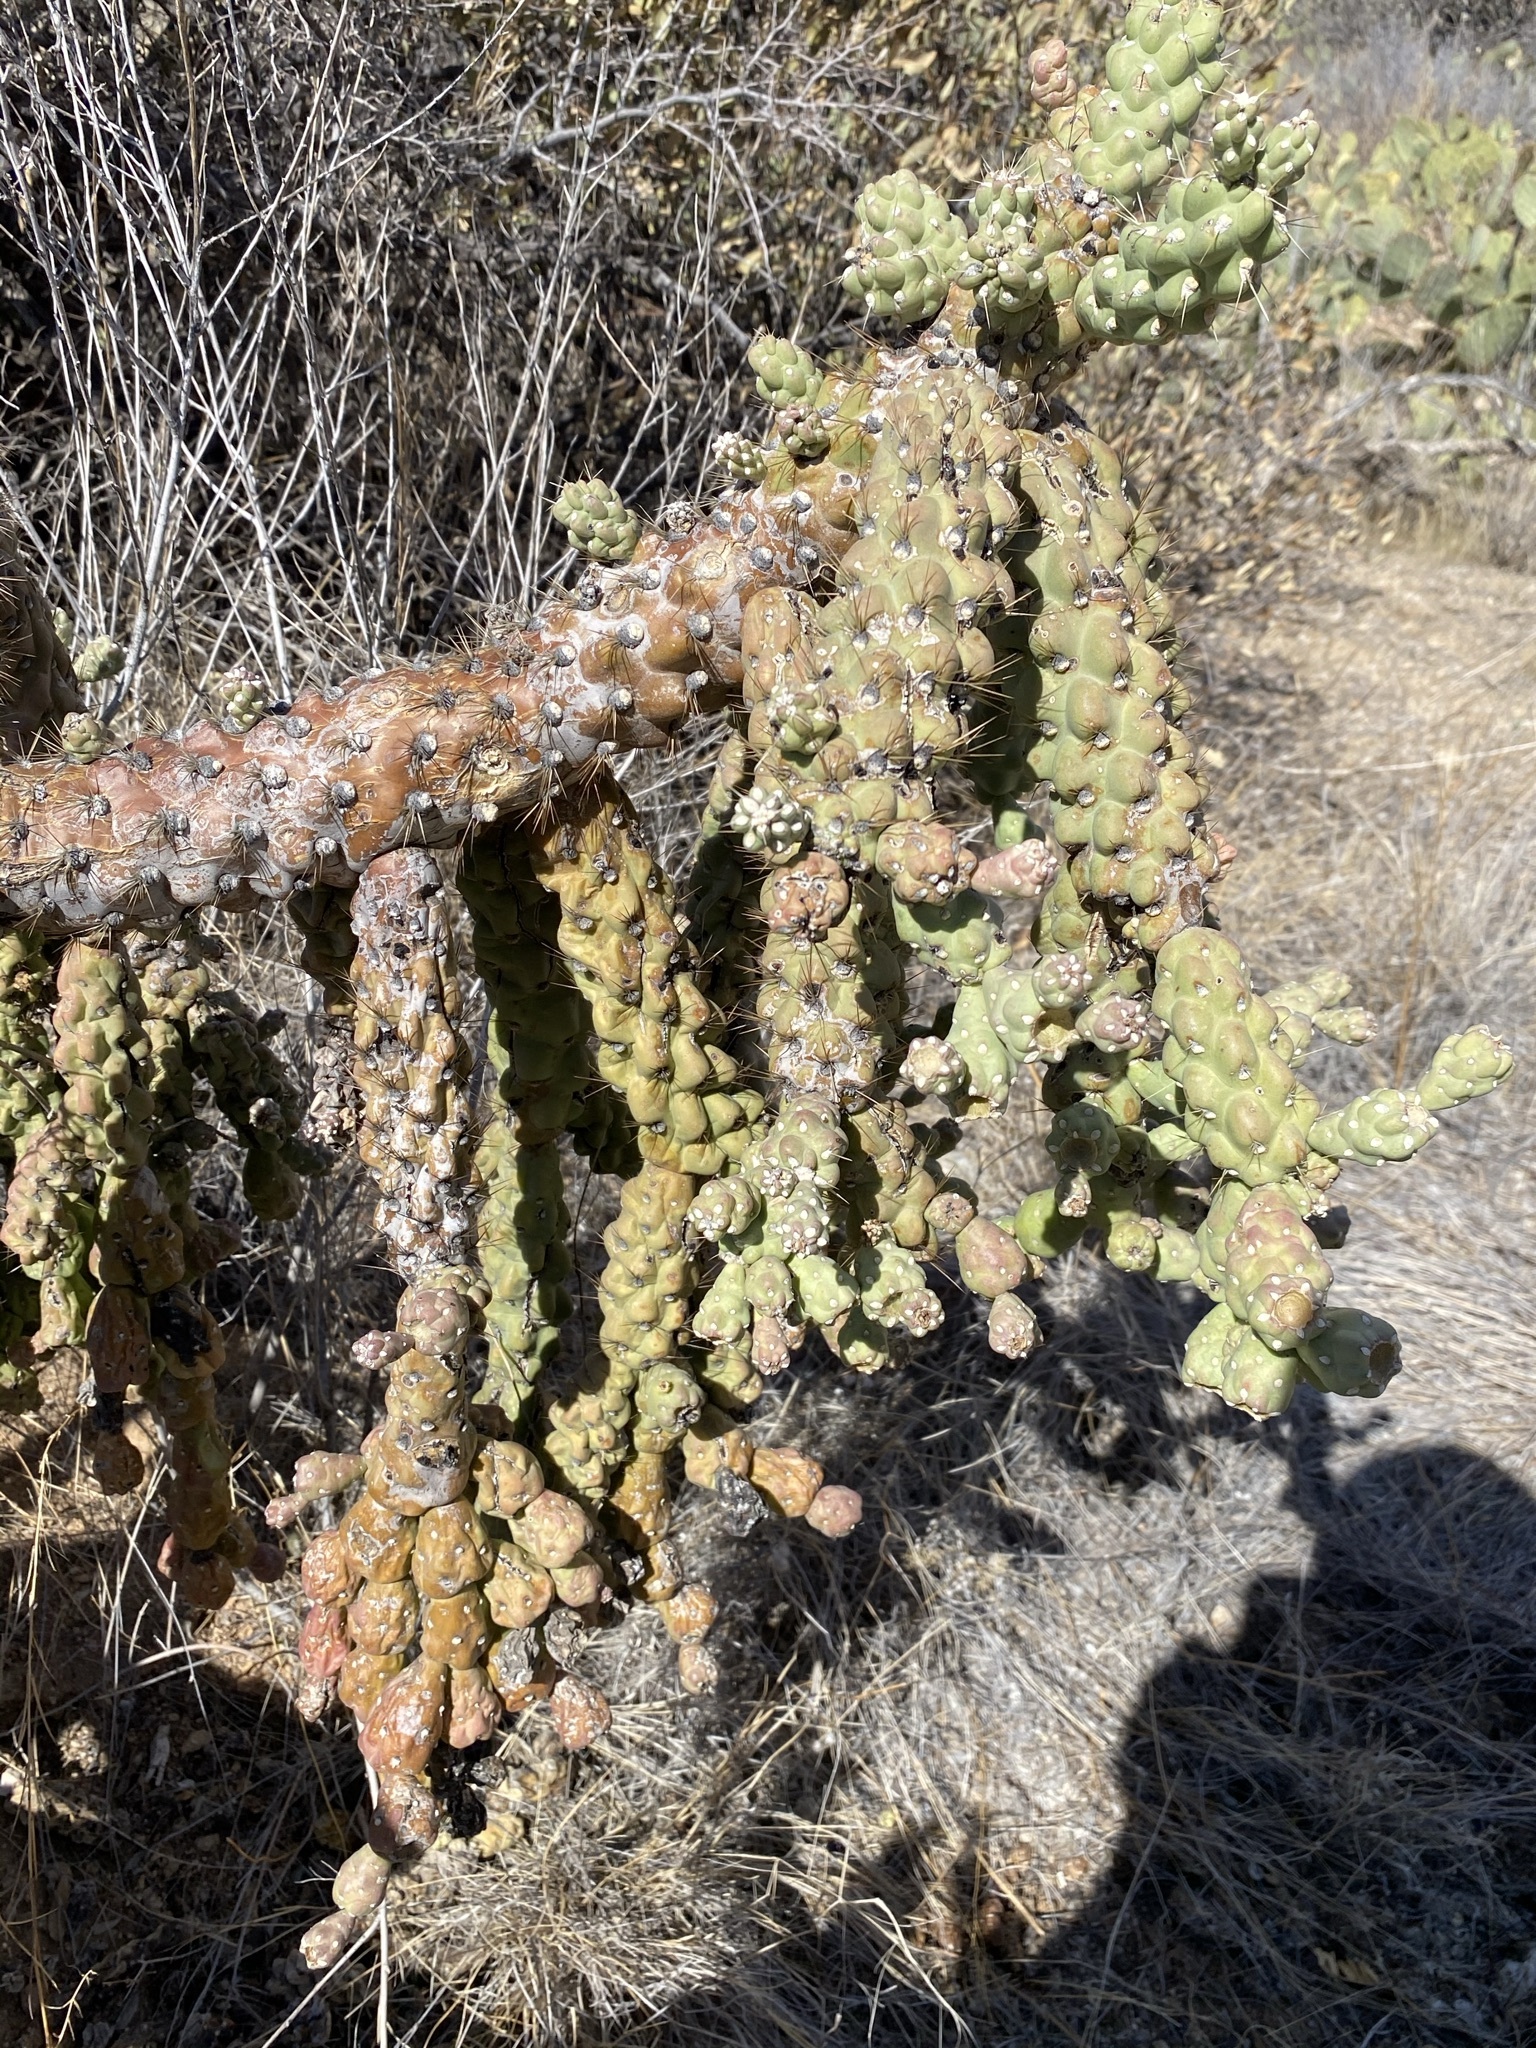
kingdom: Plantae
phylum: Tracheophyta
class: Magnoliopsida
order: Caryophyllales
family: Cactaceae
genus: Cylindropuntia
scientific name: Cylindropuntia fulgida
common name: Jumping cholla
